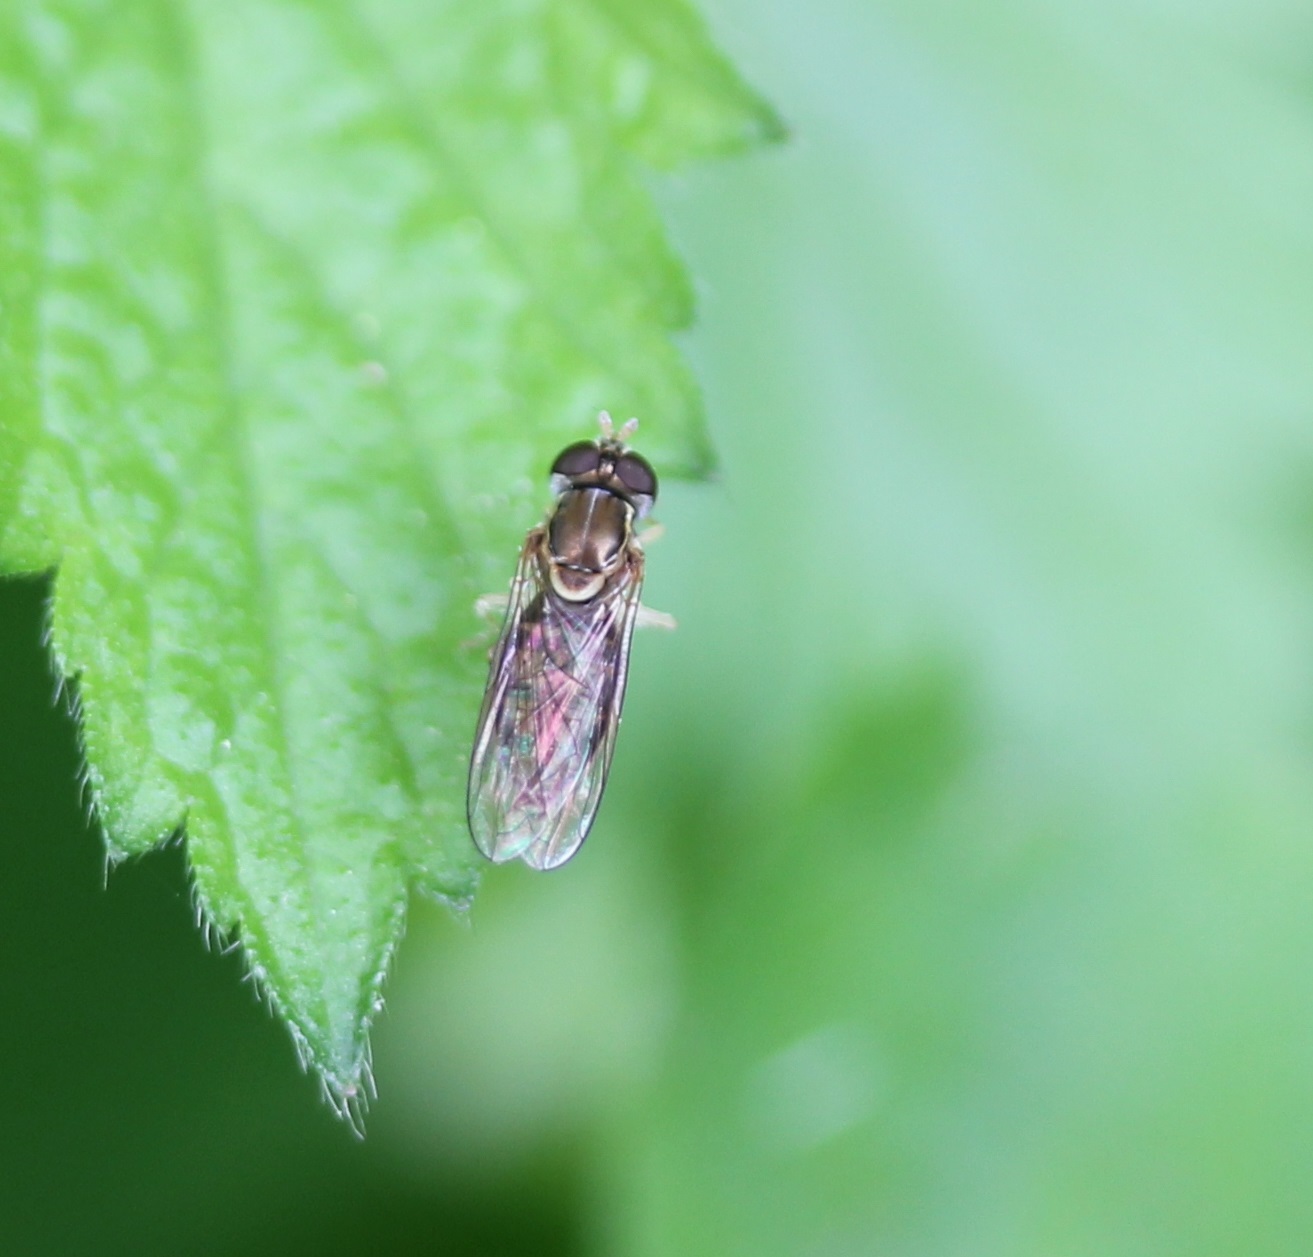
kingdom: Animalia
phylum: Arthropoda
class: Insecta
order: Diptera
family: Syrphidae
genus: Toxomerus
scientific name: Toxomerus marginatus
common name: Syrphid fly
